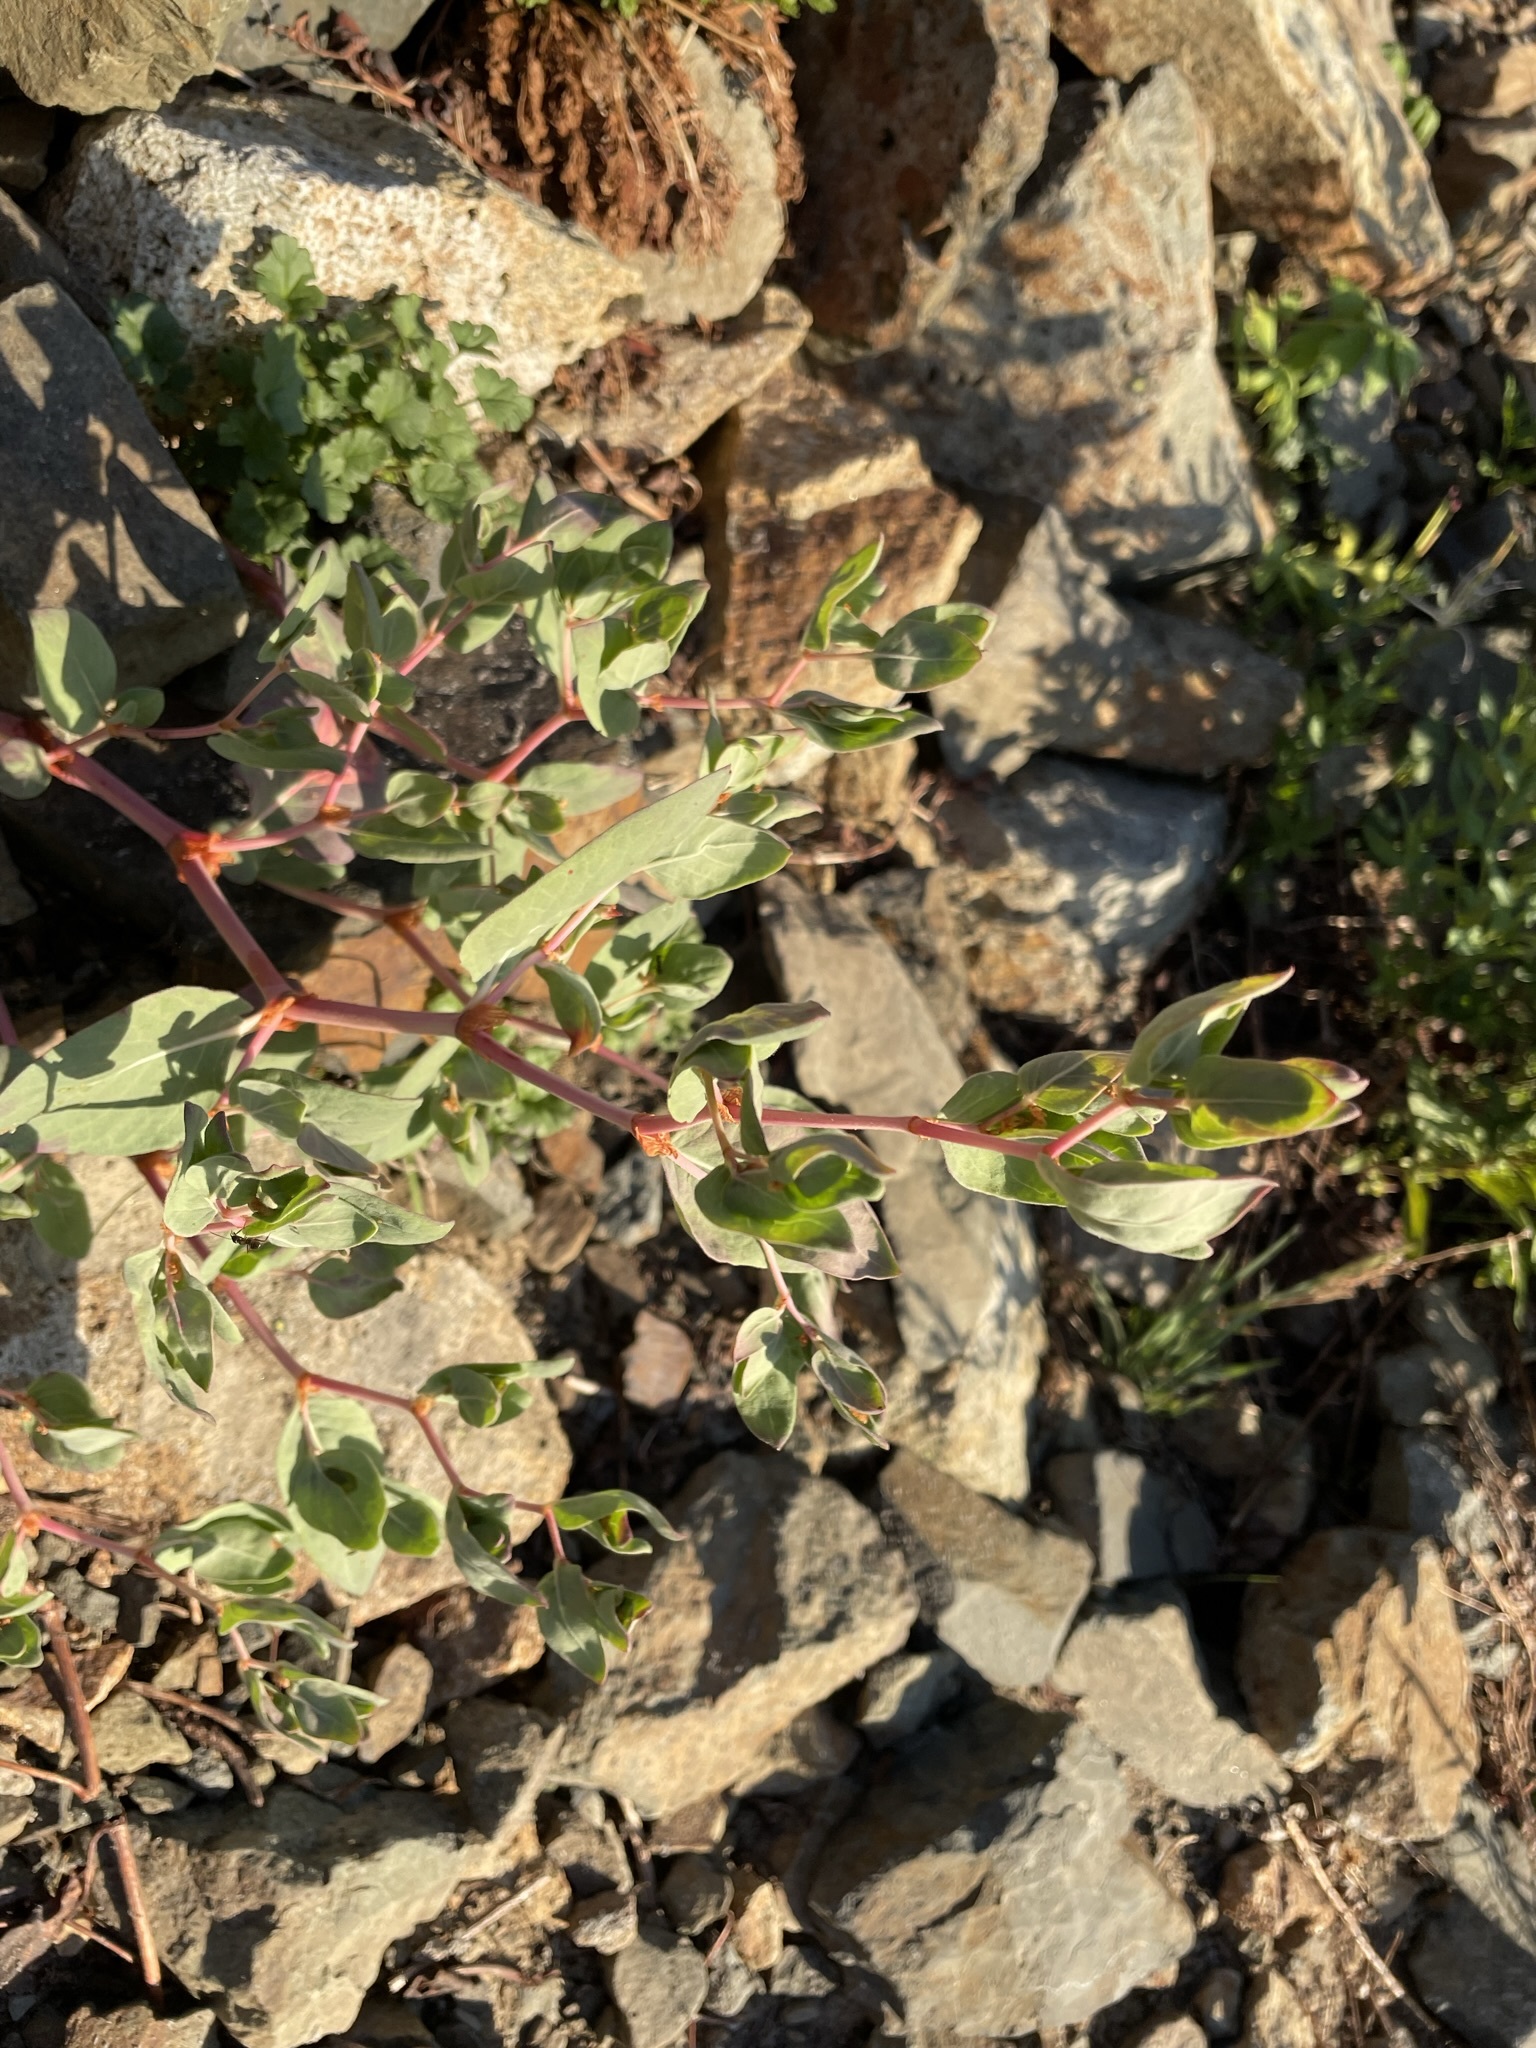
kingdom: Plantae
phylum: Tracheophyta
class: Magnoliopsida
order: Caryophyllales
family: Polygonaceae
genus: Koenigia
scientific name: Koenigia davisiae
